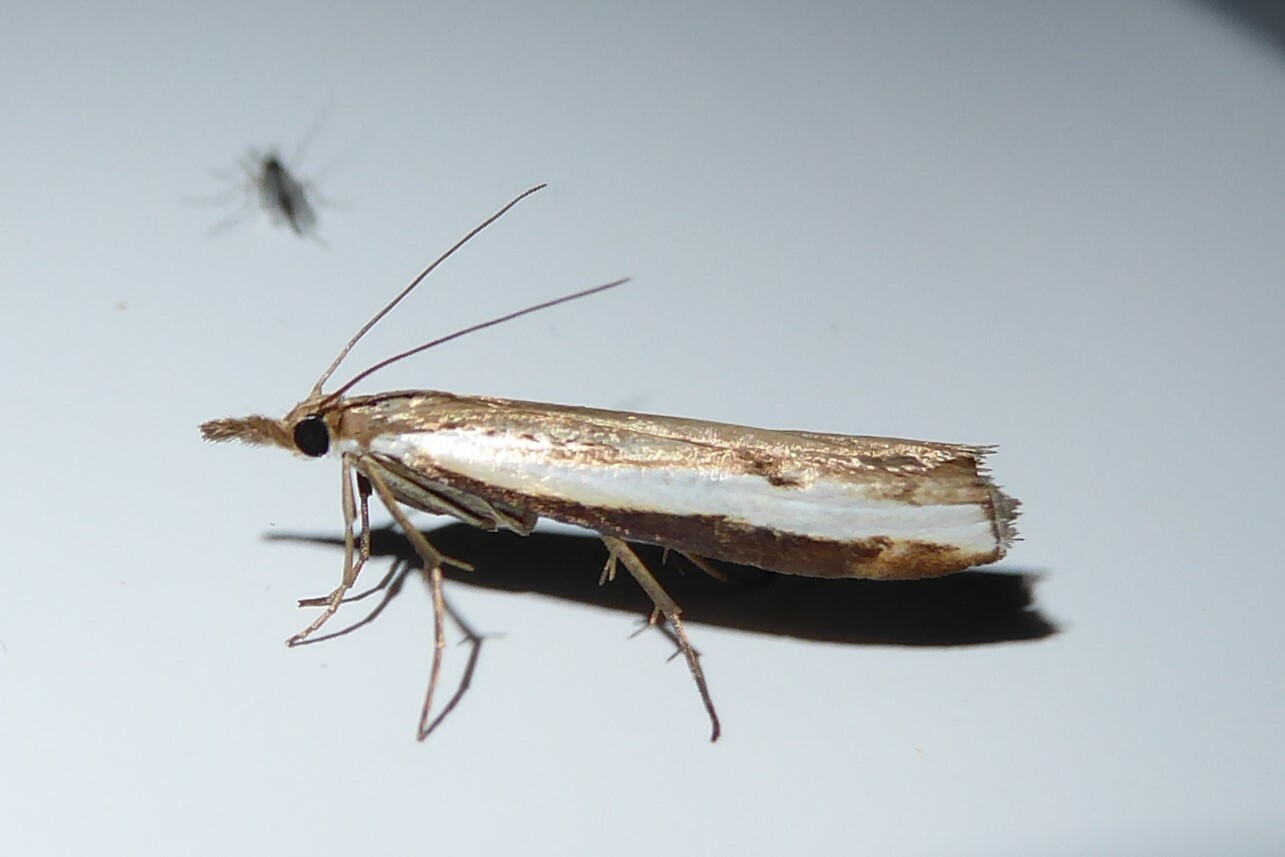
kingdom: Animalia
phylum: Arthropoda
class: Insecta
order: Lepidoptera
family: Crambidae
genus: Orocrambus
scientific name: Orocrambus flexuosellus
